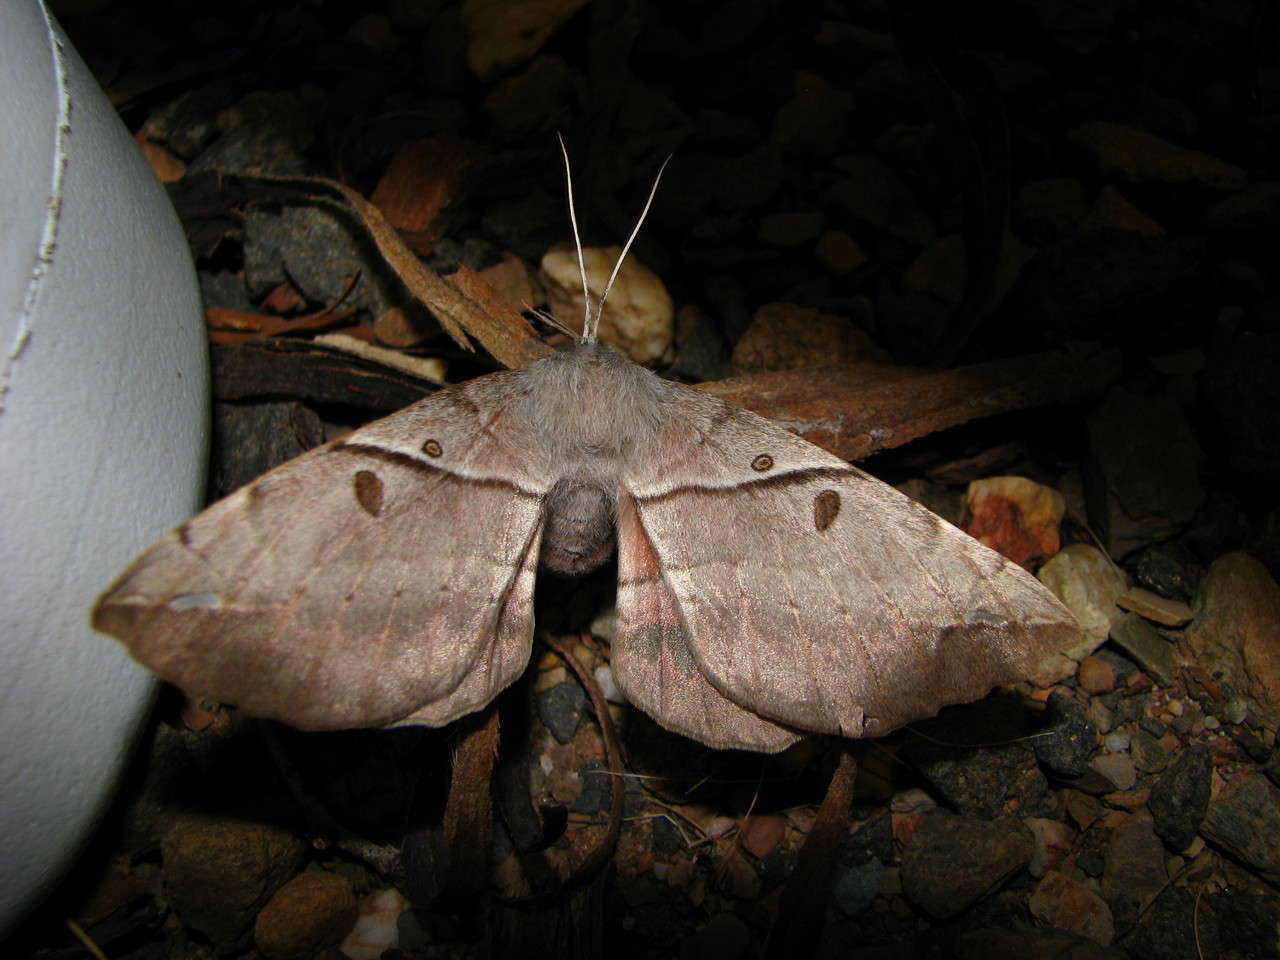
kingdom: Animalia
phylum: Arthropoda
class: Insecta
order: Lepidoptera
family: Anthelidae
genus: Chelepteryx
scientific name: Chelepteryx chalepteryx
